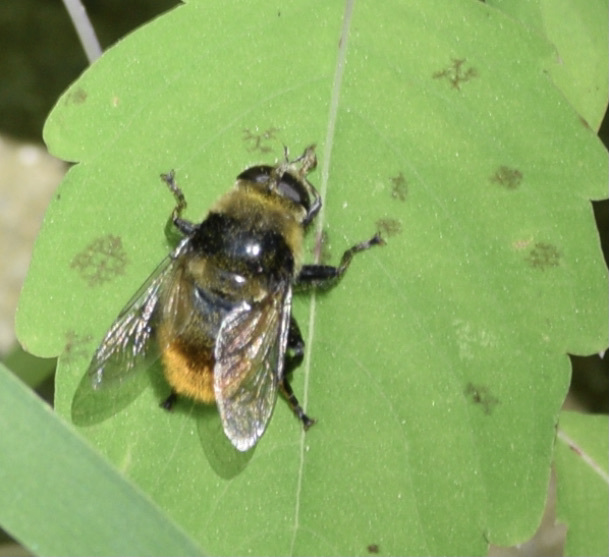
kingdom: Animalia
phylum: Arthropoda
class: Insecta
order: Diptera
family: Syrphidae
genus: Merodon
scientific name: Merodon equestris
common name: Greater bulb-fly
